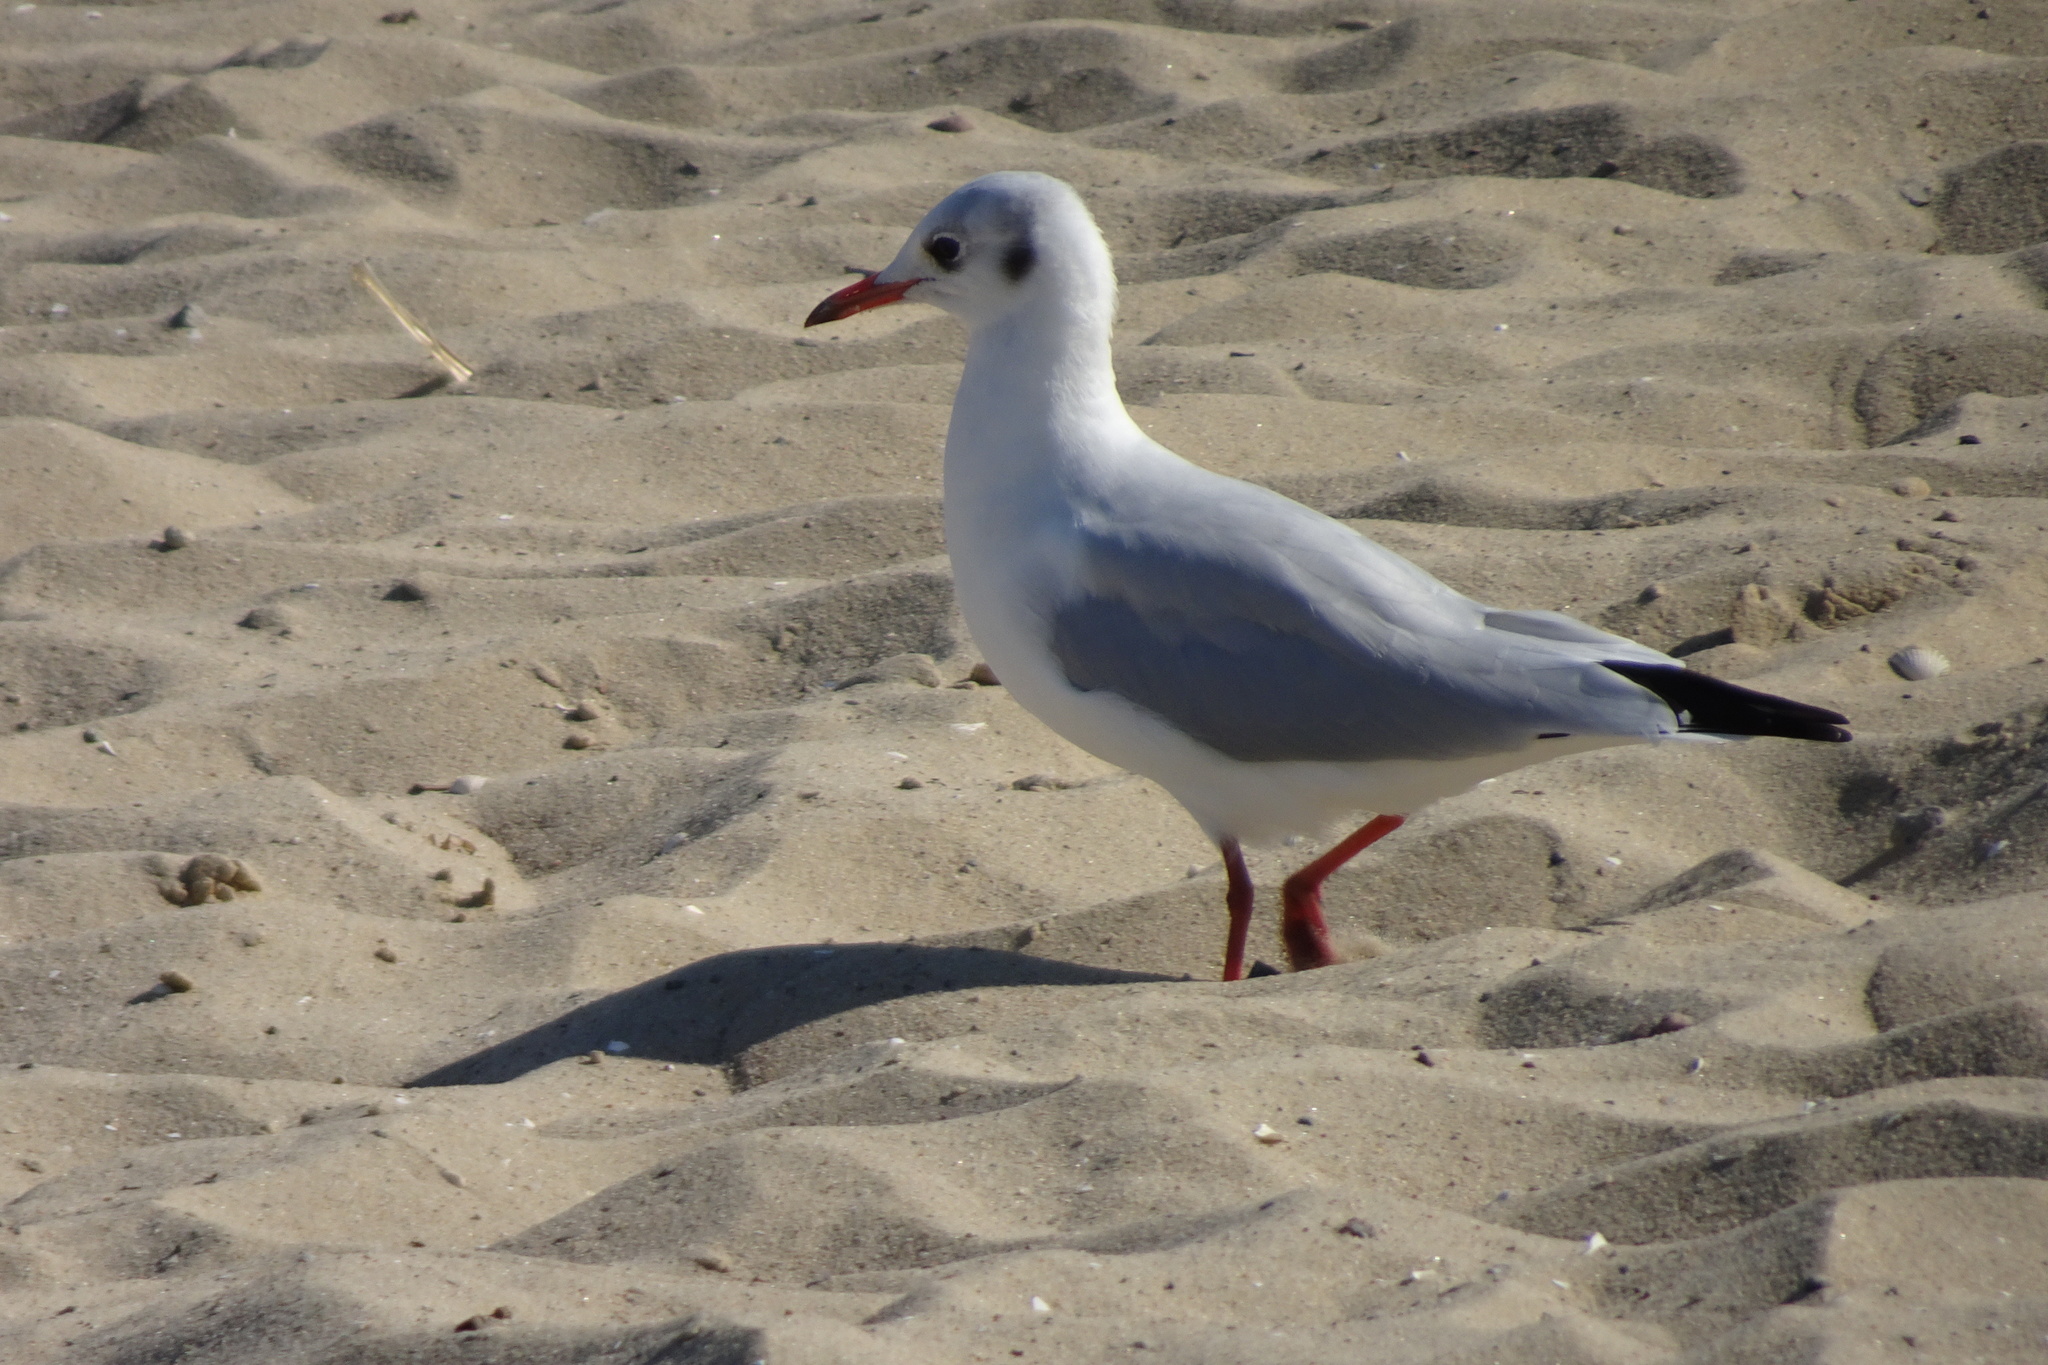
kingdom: Animalia
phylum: Chordata
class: Aves
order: Charadriiformes
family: Laridae
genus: Chroicocephalus
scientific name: Chroicocephalus ridibundus
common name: Black-headed gull
